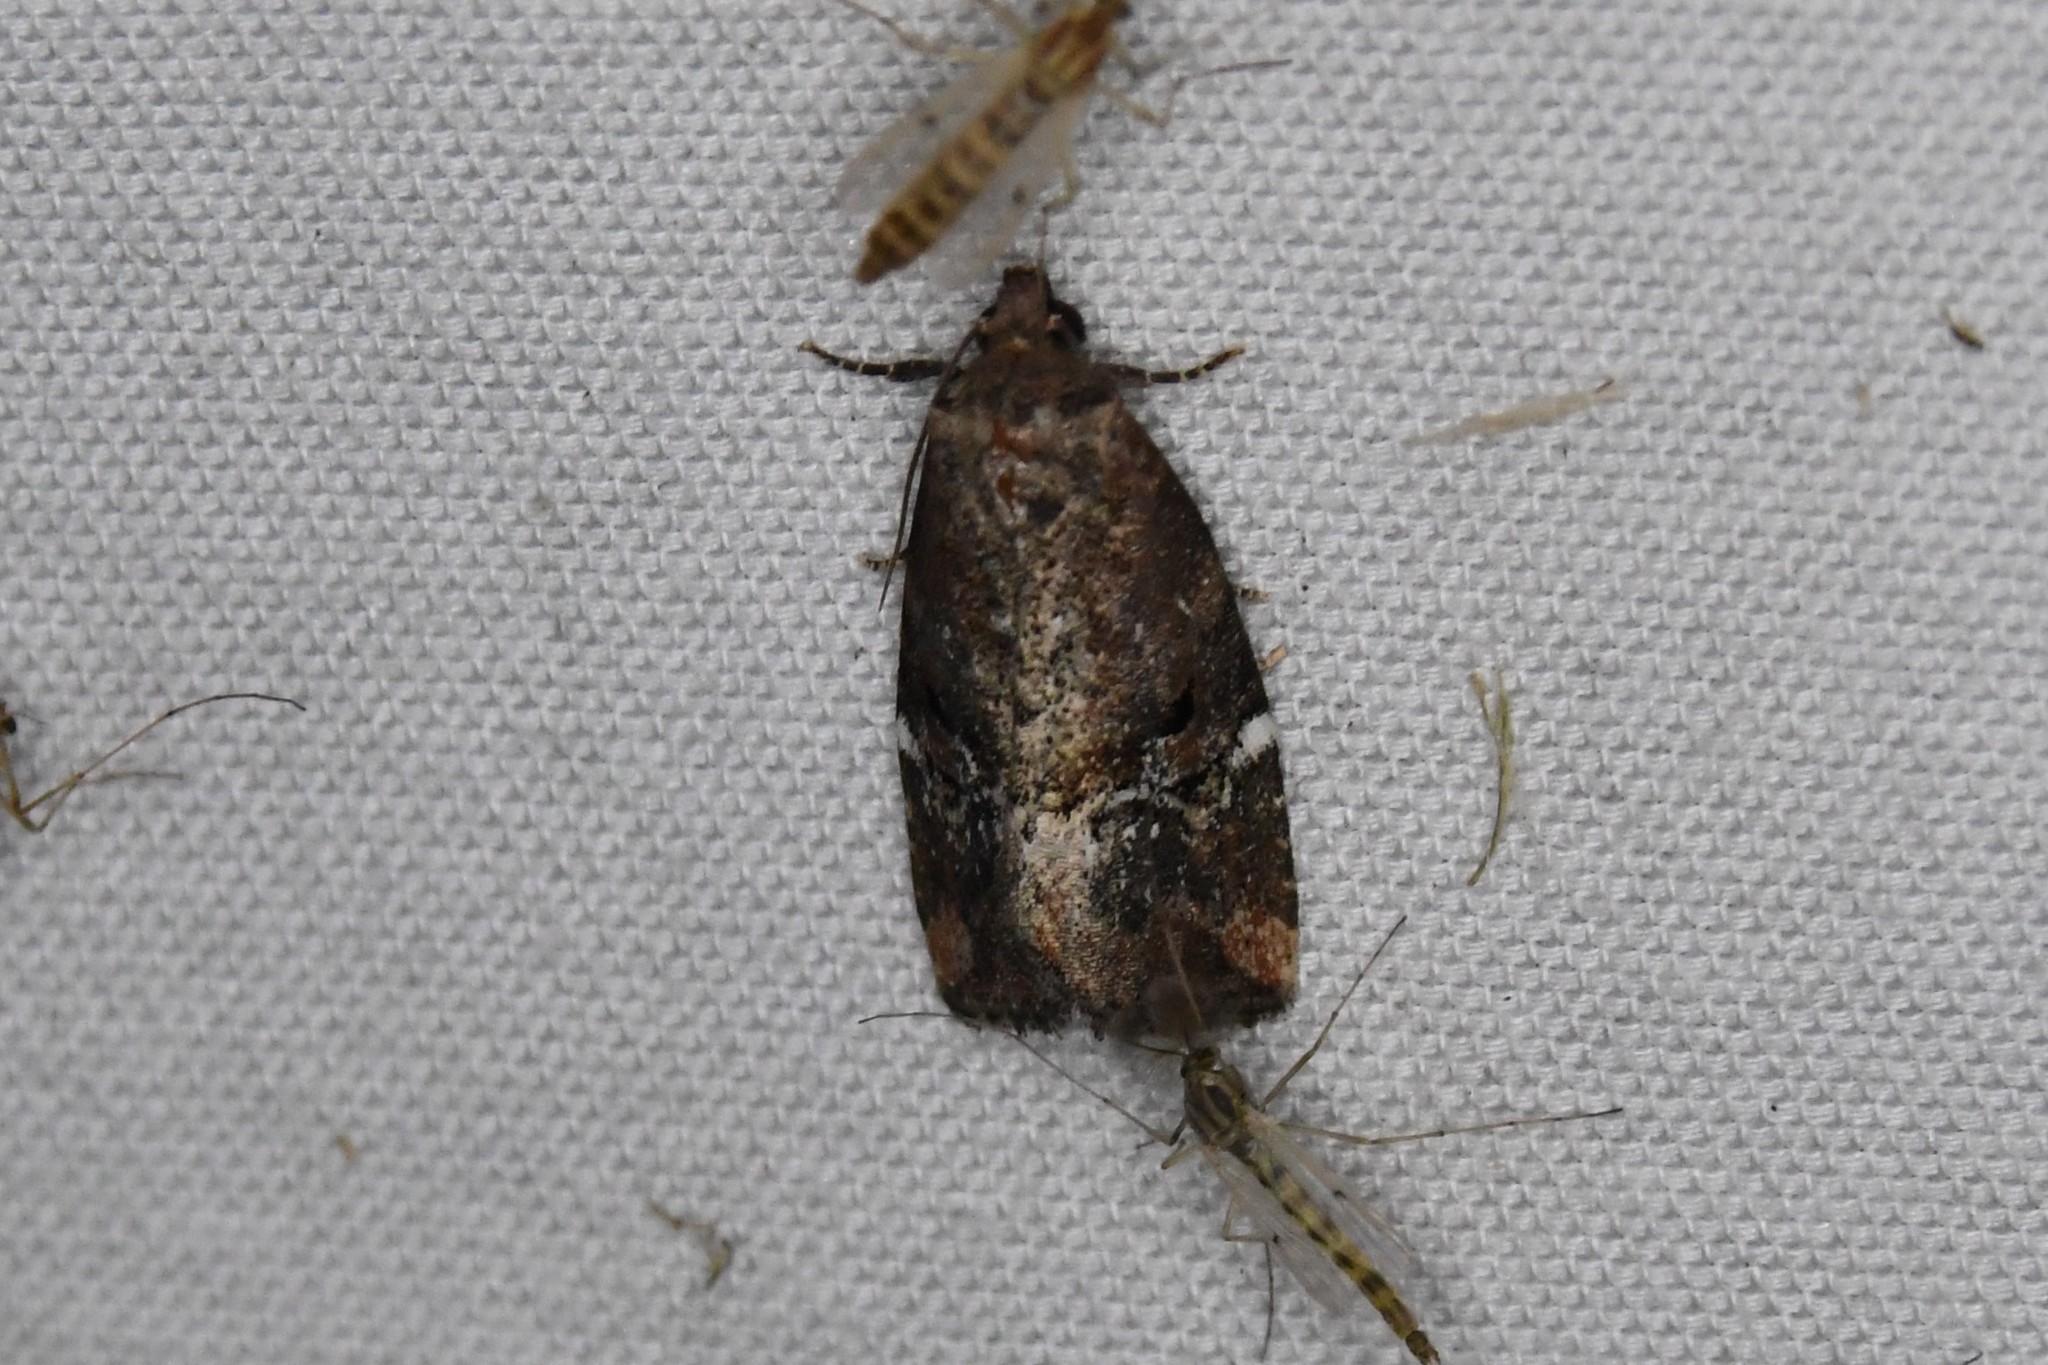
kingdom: Animalia
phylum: Arthropoda
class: Insecta
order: Lepidoptera
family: Noctuidae
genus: Elaphria
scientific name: Elaphria versicolor
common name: Fir harlequin
